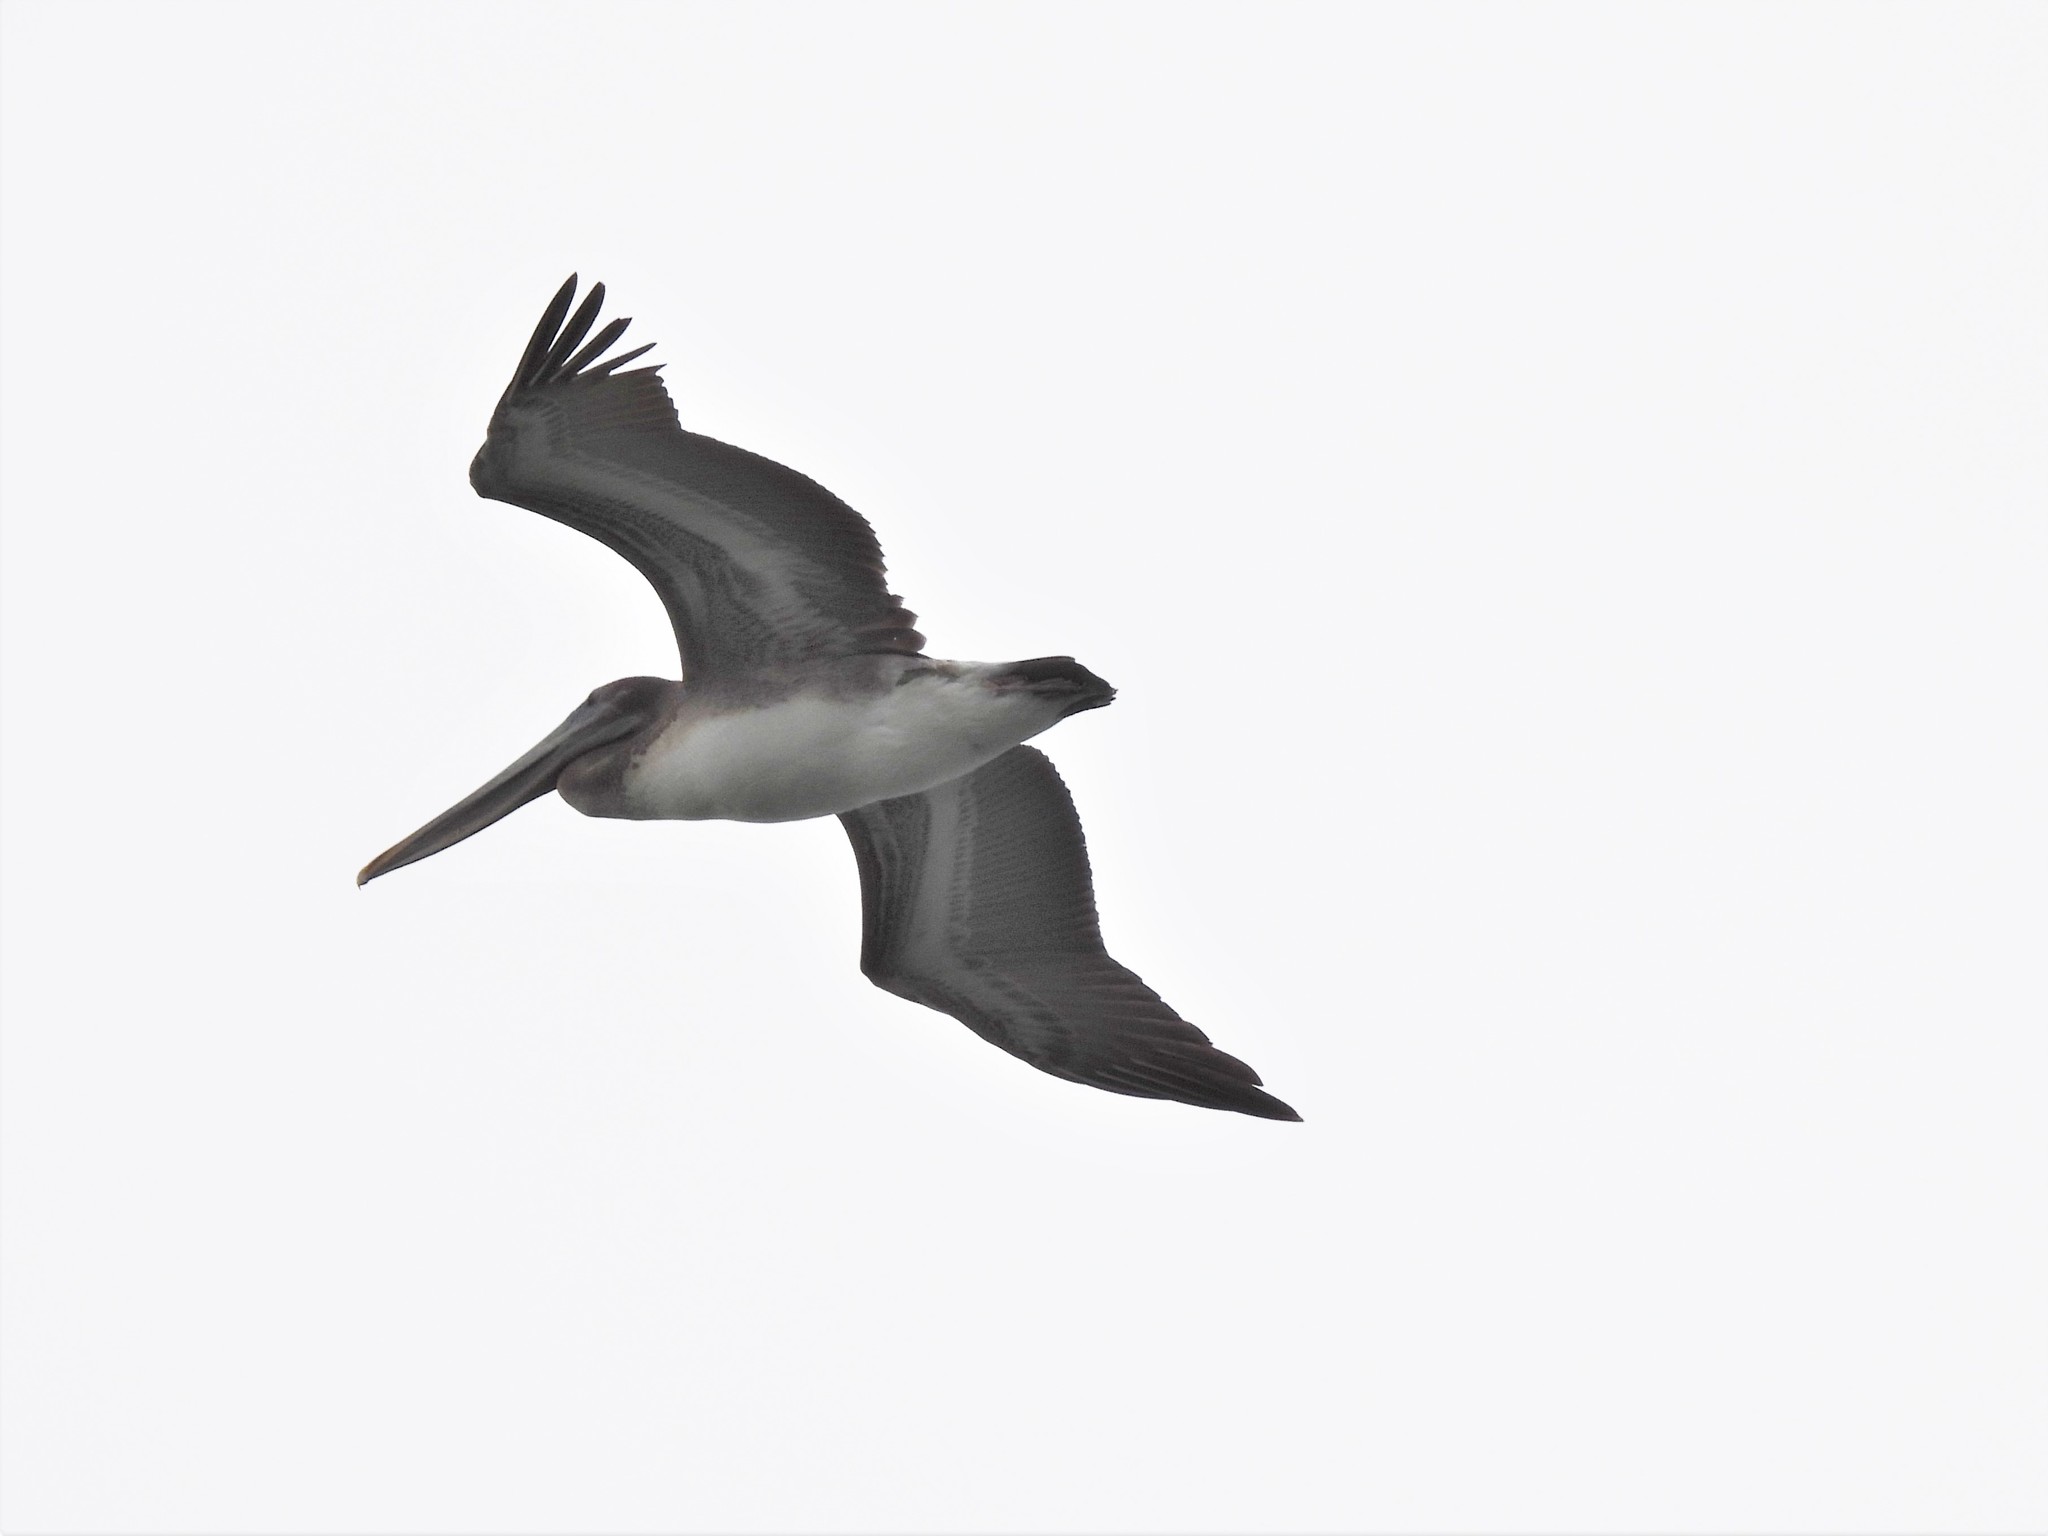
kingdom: Animalia
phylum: Chordata
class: Aves
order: Pelecaniformes
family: Pelecanidae
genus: Pelecanus
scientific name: Pelecanus occidentalis
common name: Brown pelican
